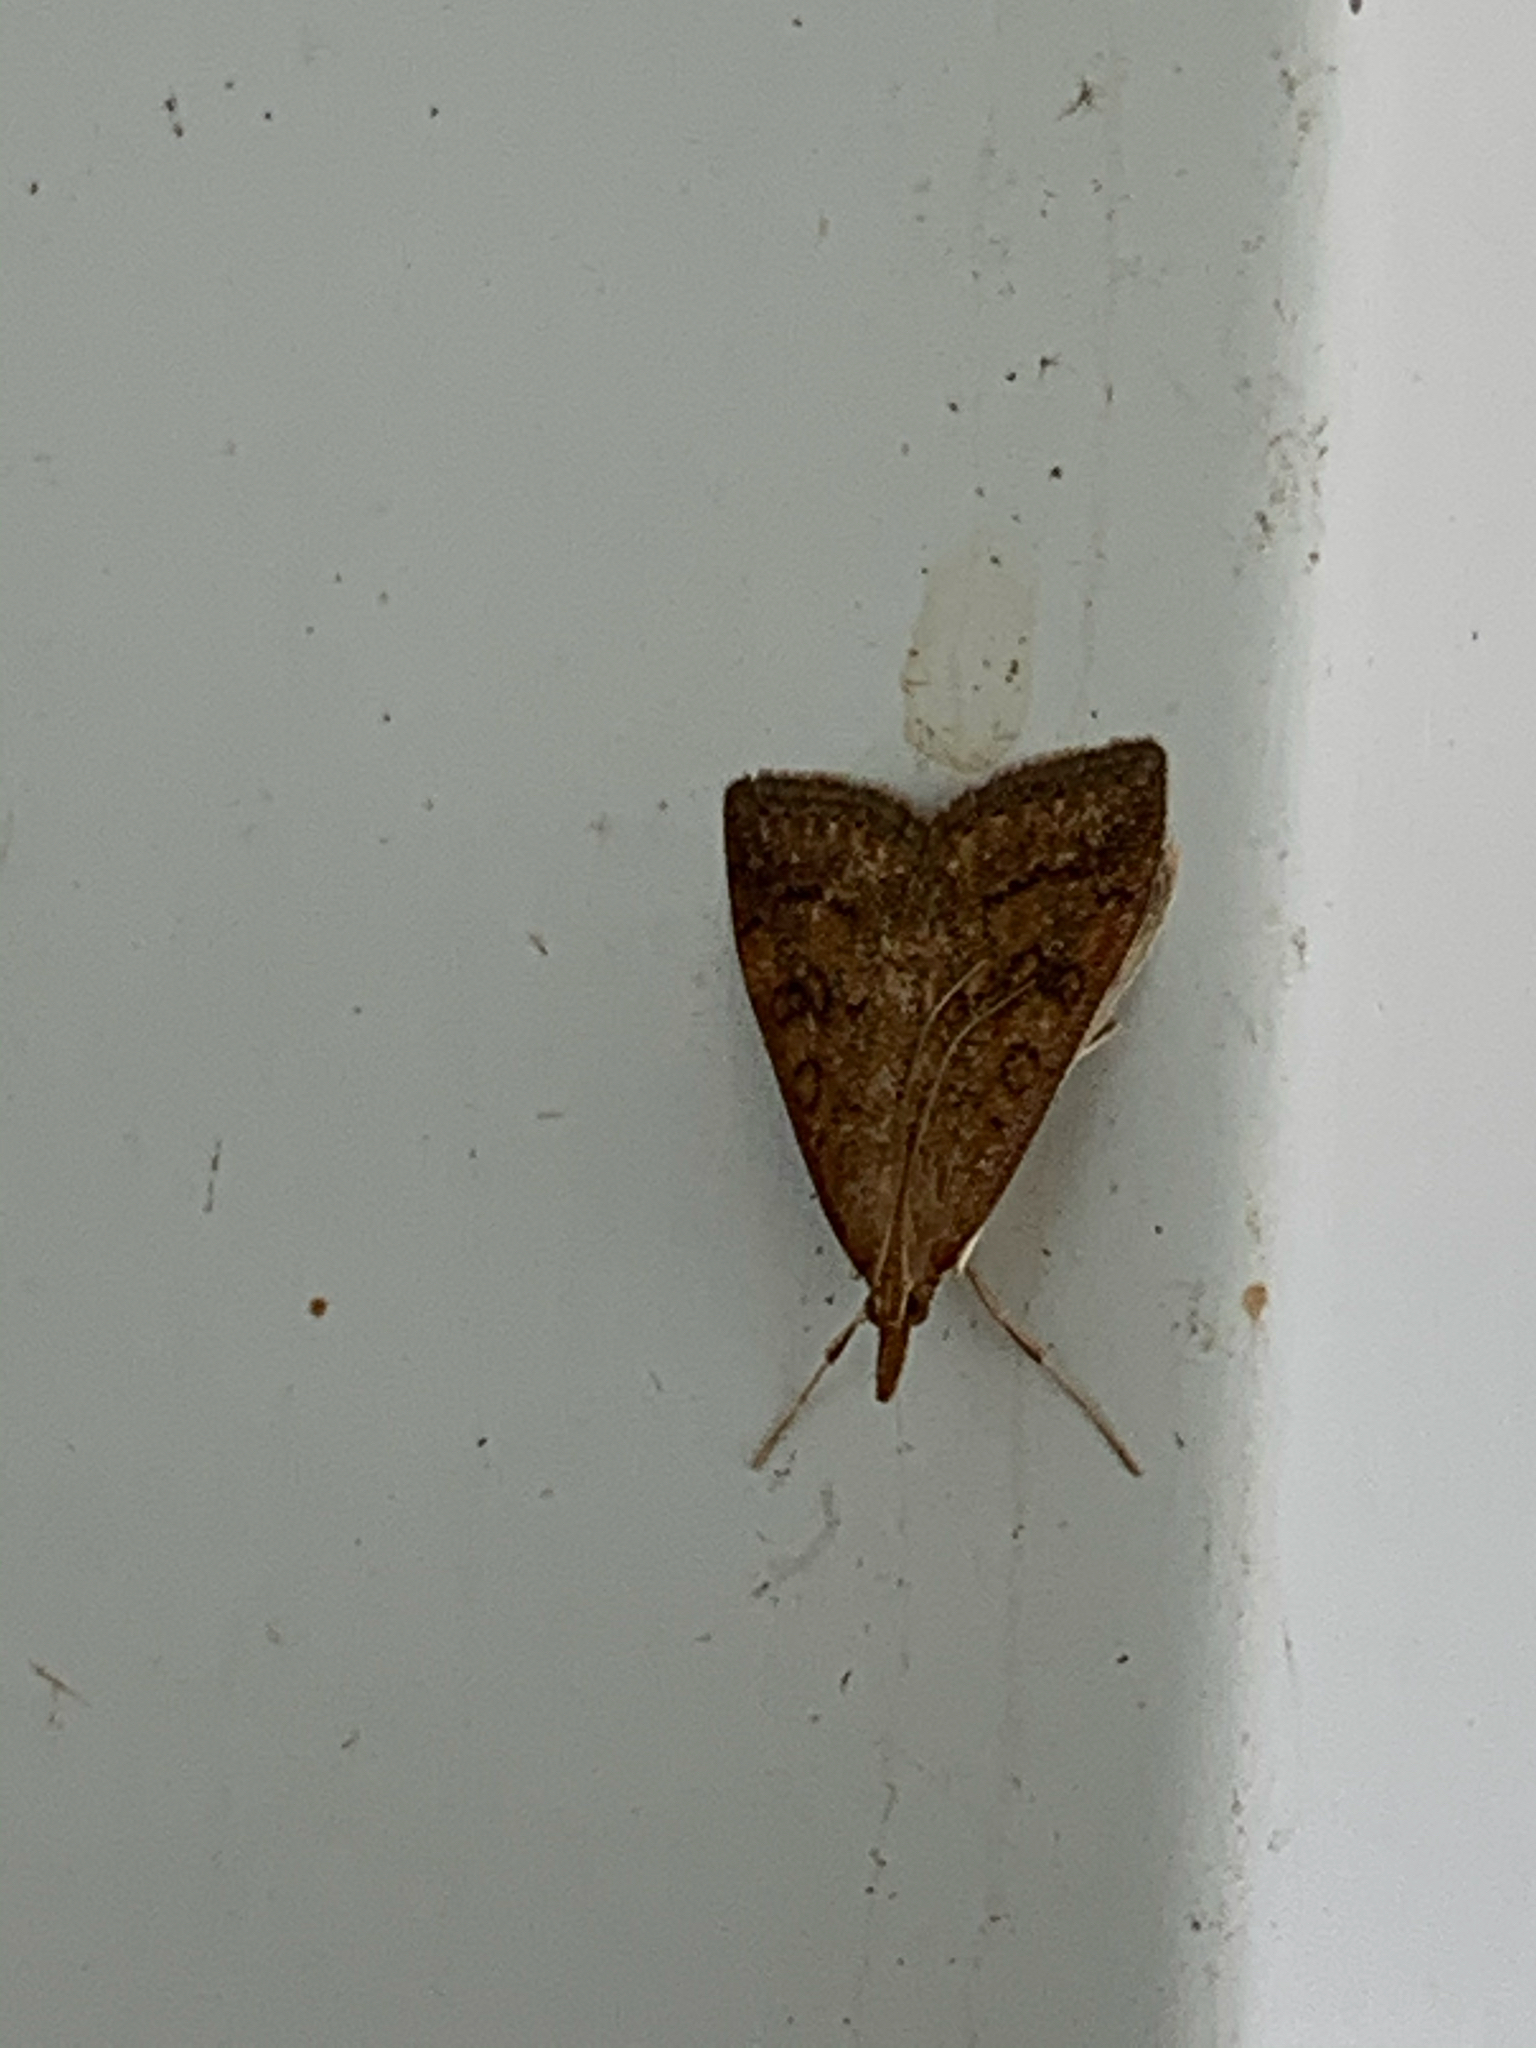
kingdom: Animalia
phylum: Arthropoda
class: Insecta
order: Lepidoptera
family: Crambidae
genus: Udea
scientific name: Udea rubigalis
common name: Celery leaftier moth
